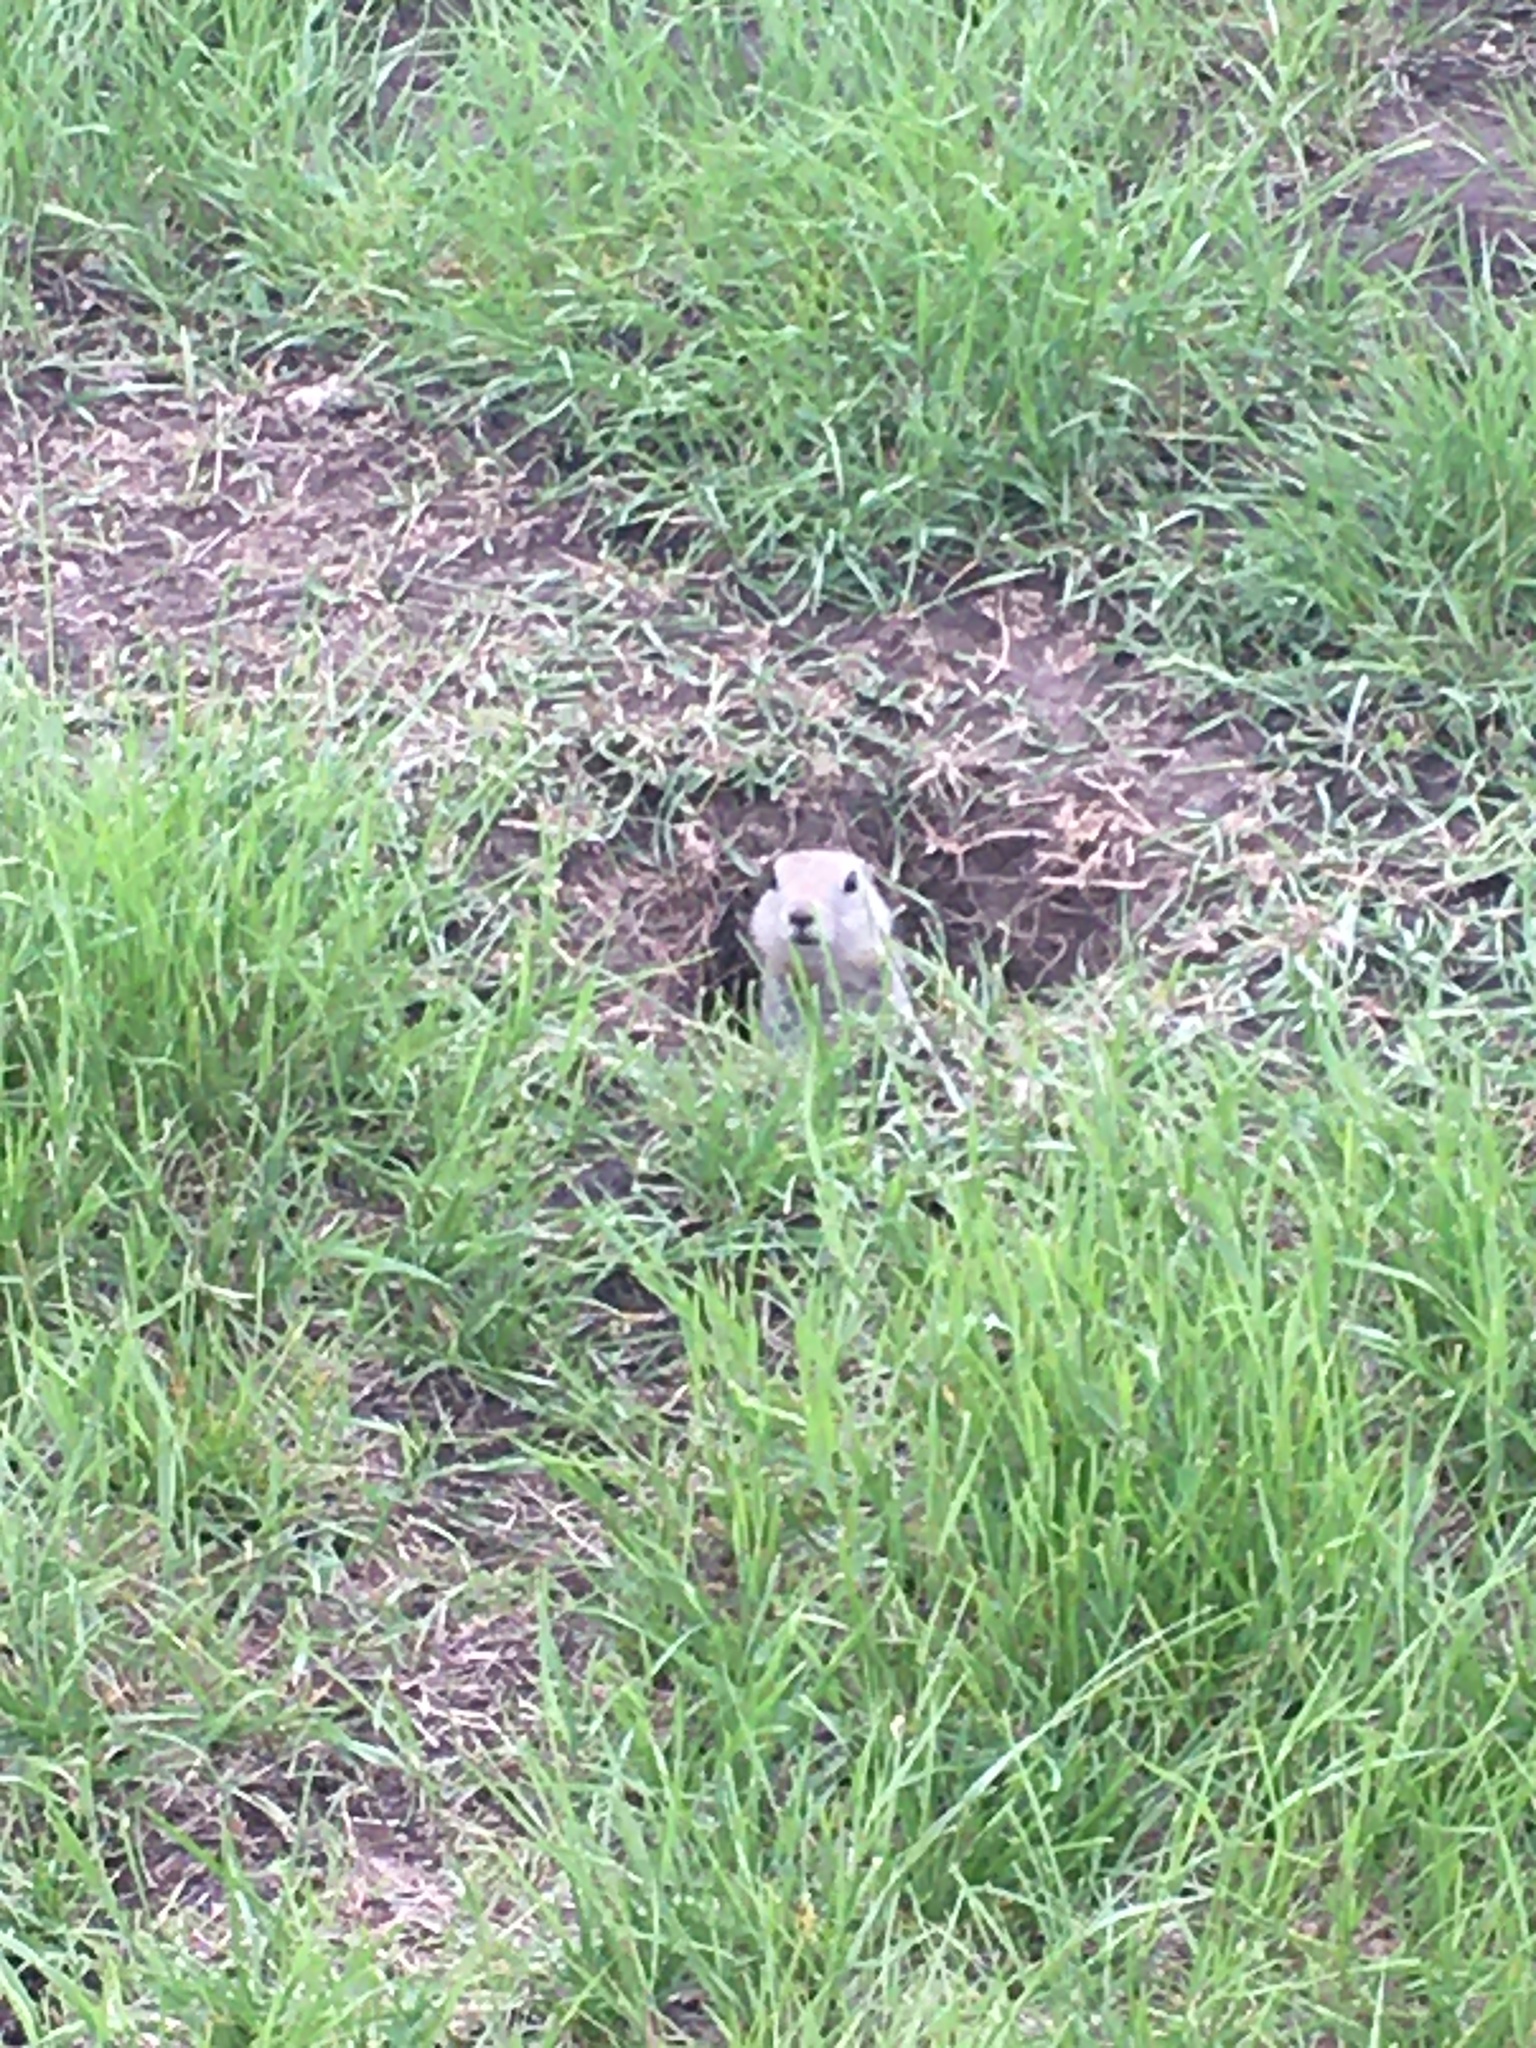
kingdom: Animalia
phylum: Chordata
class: Mammalia
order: Rodentia
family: Sciuridae
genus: Urocitellus
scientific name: Urocitellus richardsonii
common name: Richardson's ground squirrel
